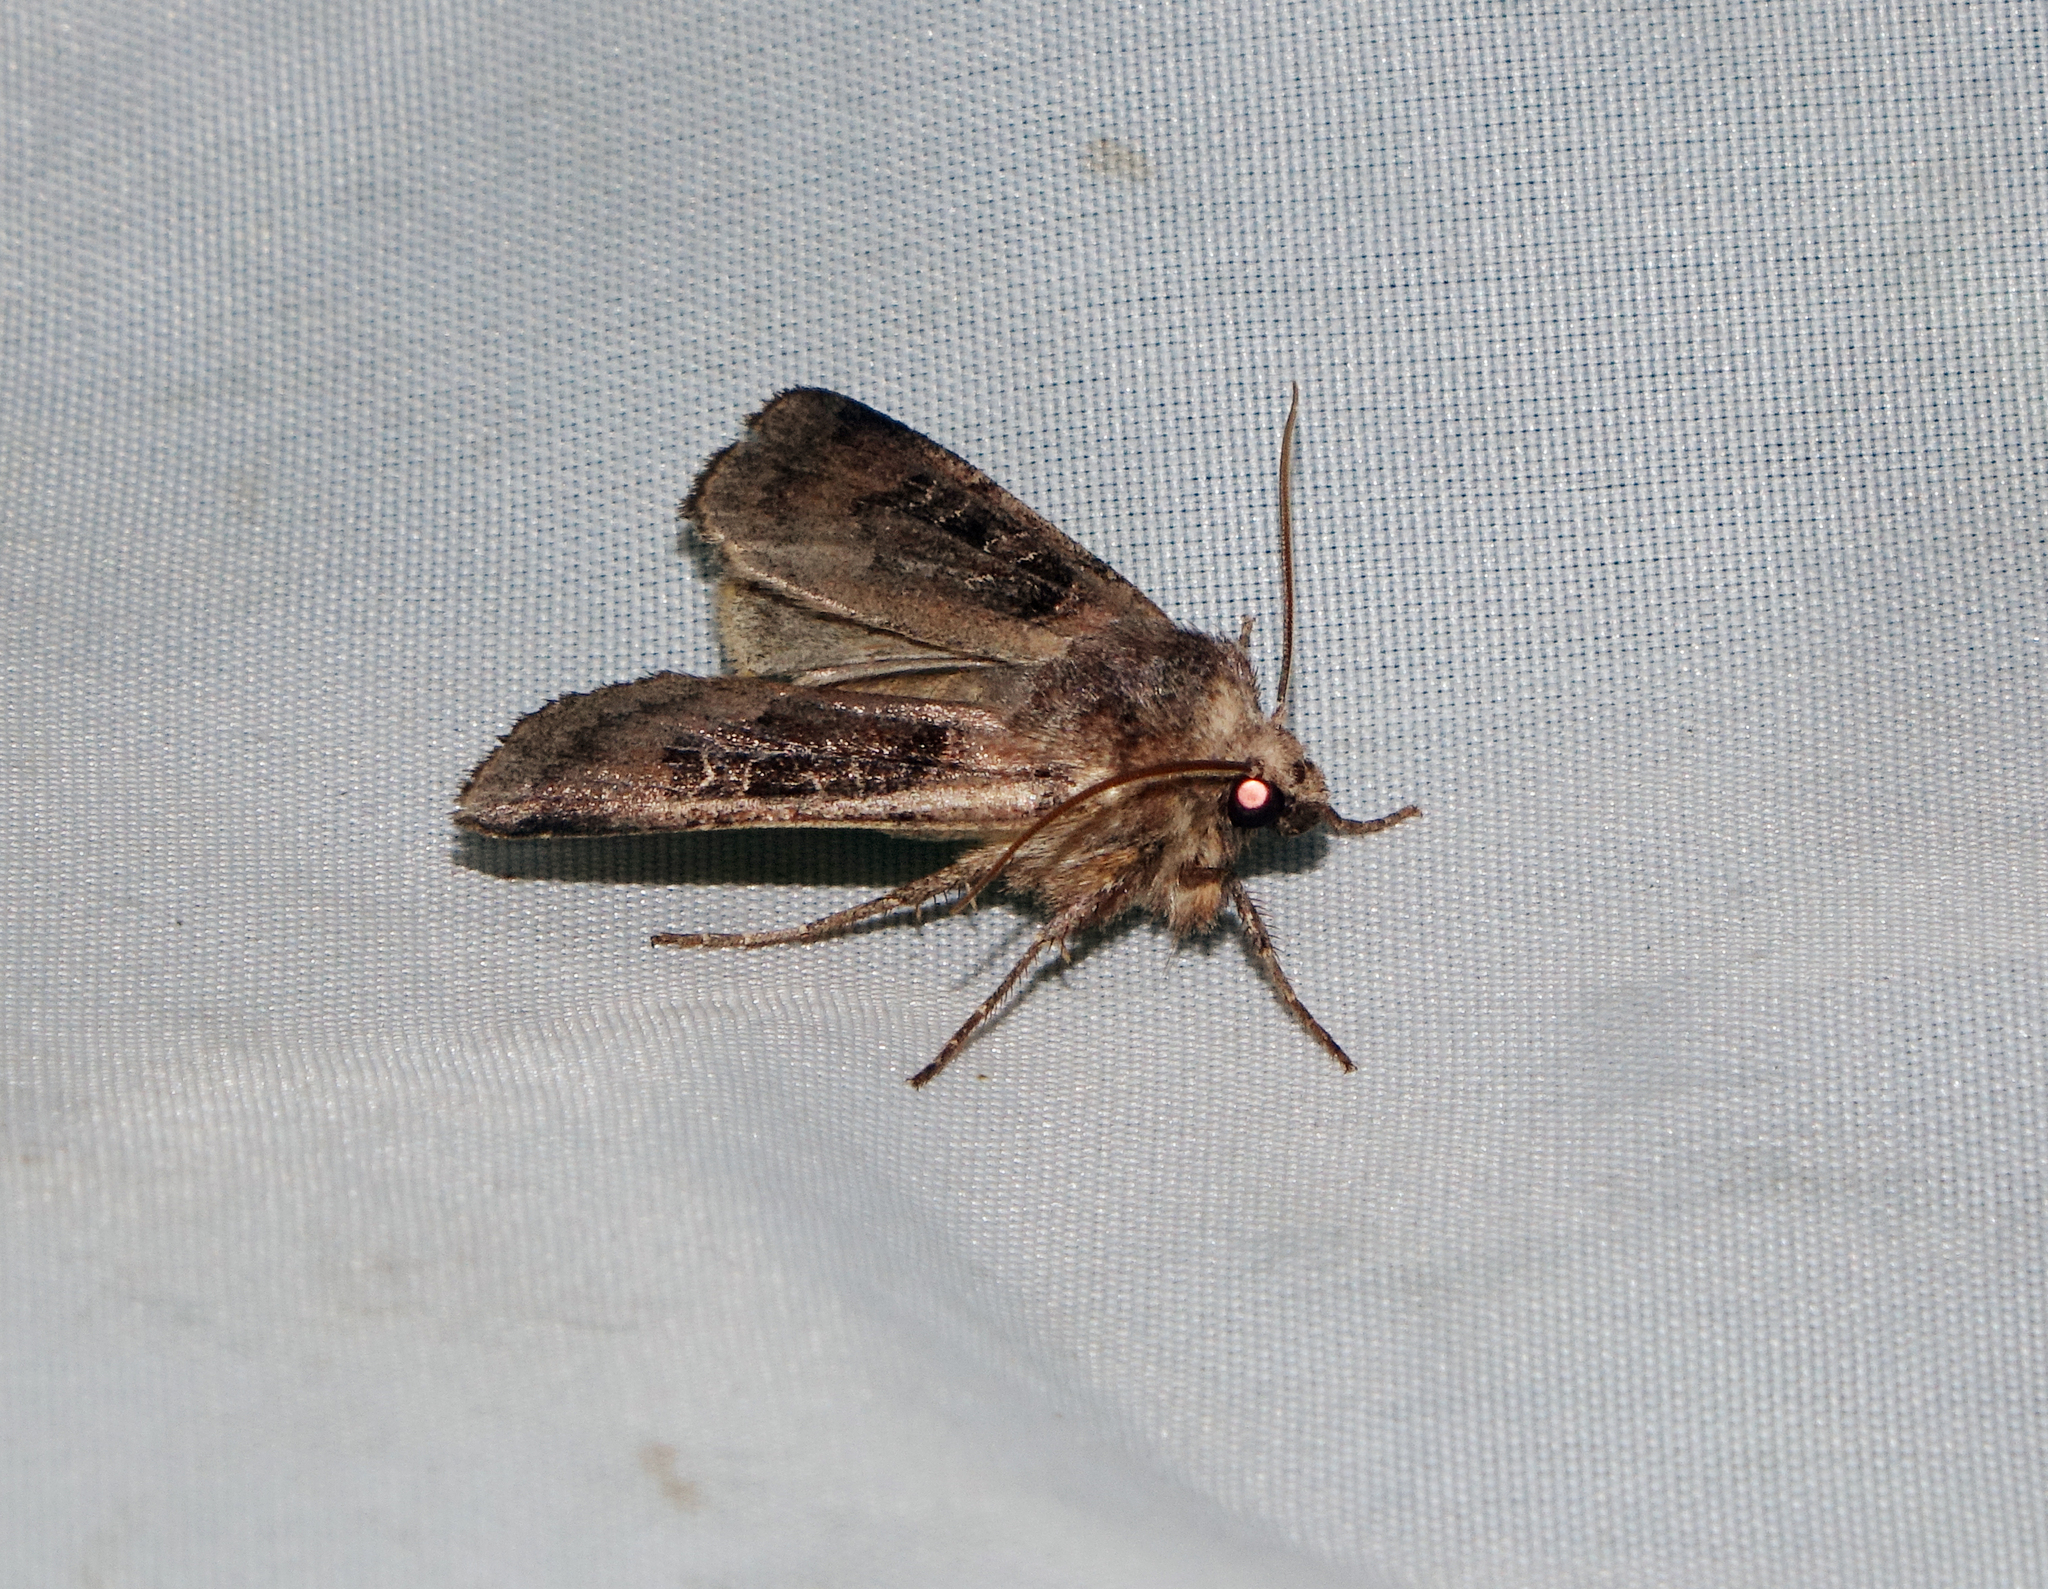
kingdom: Animalia
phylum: Arthropoda
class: Insecta
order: Lepidoptera
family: Noctuidae
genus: Chersotis
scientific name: Chersotis cuprea
